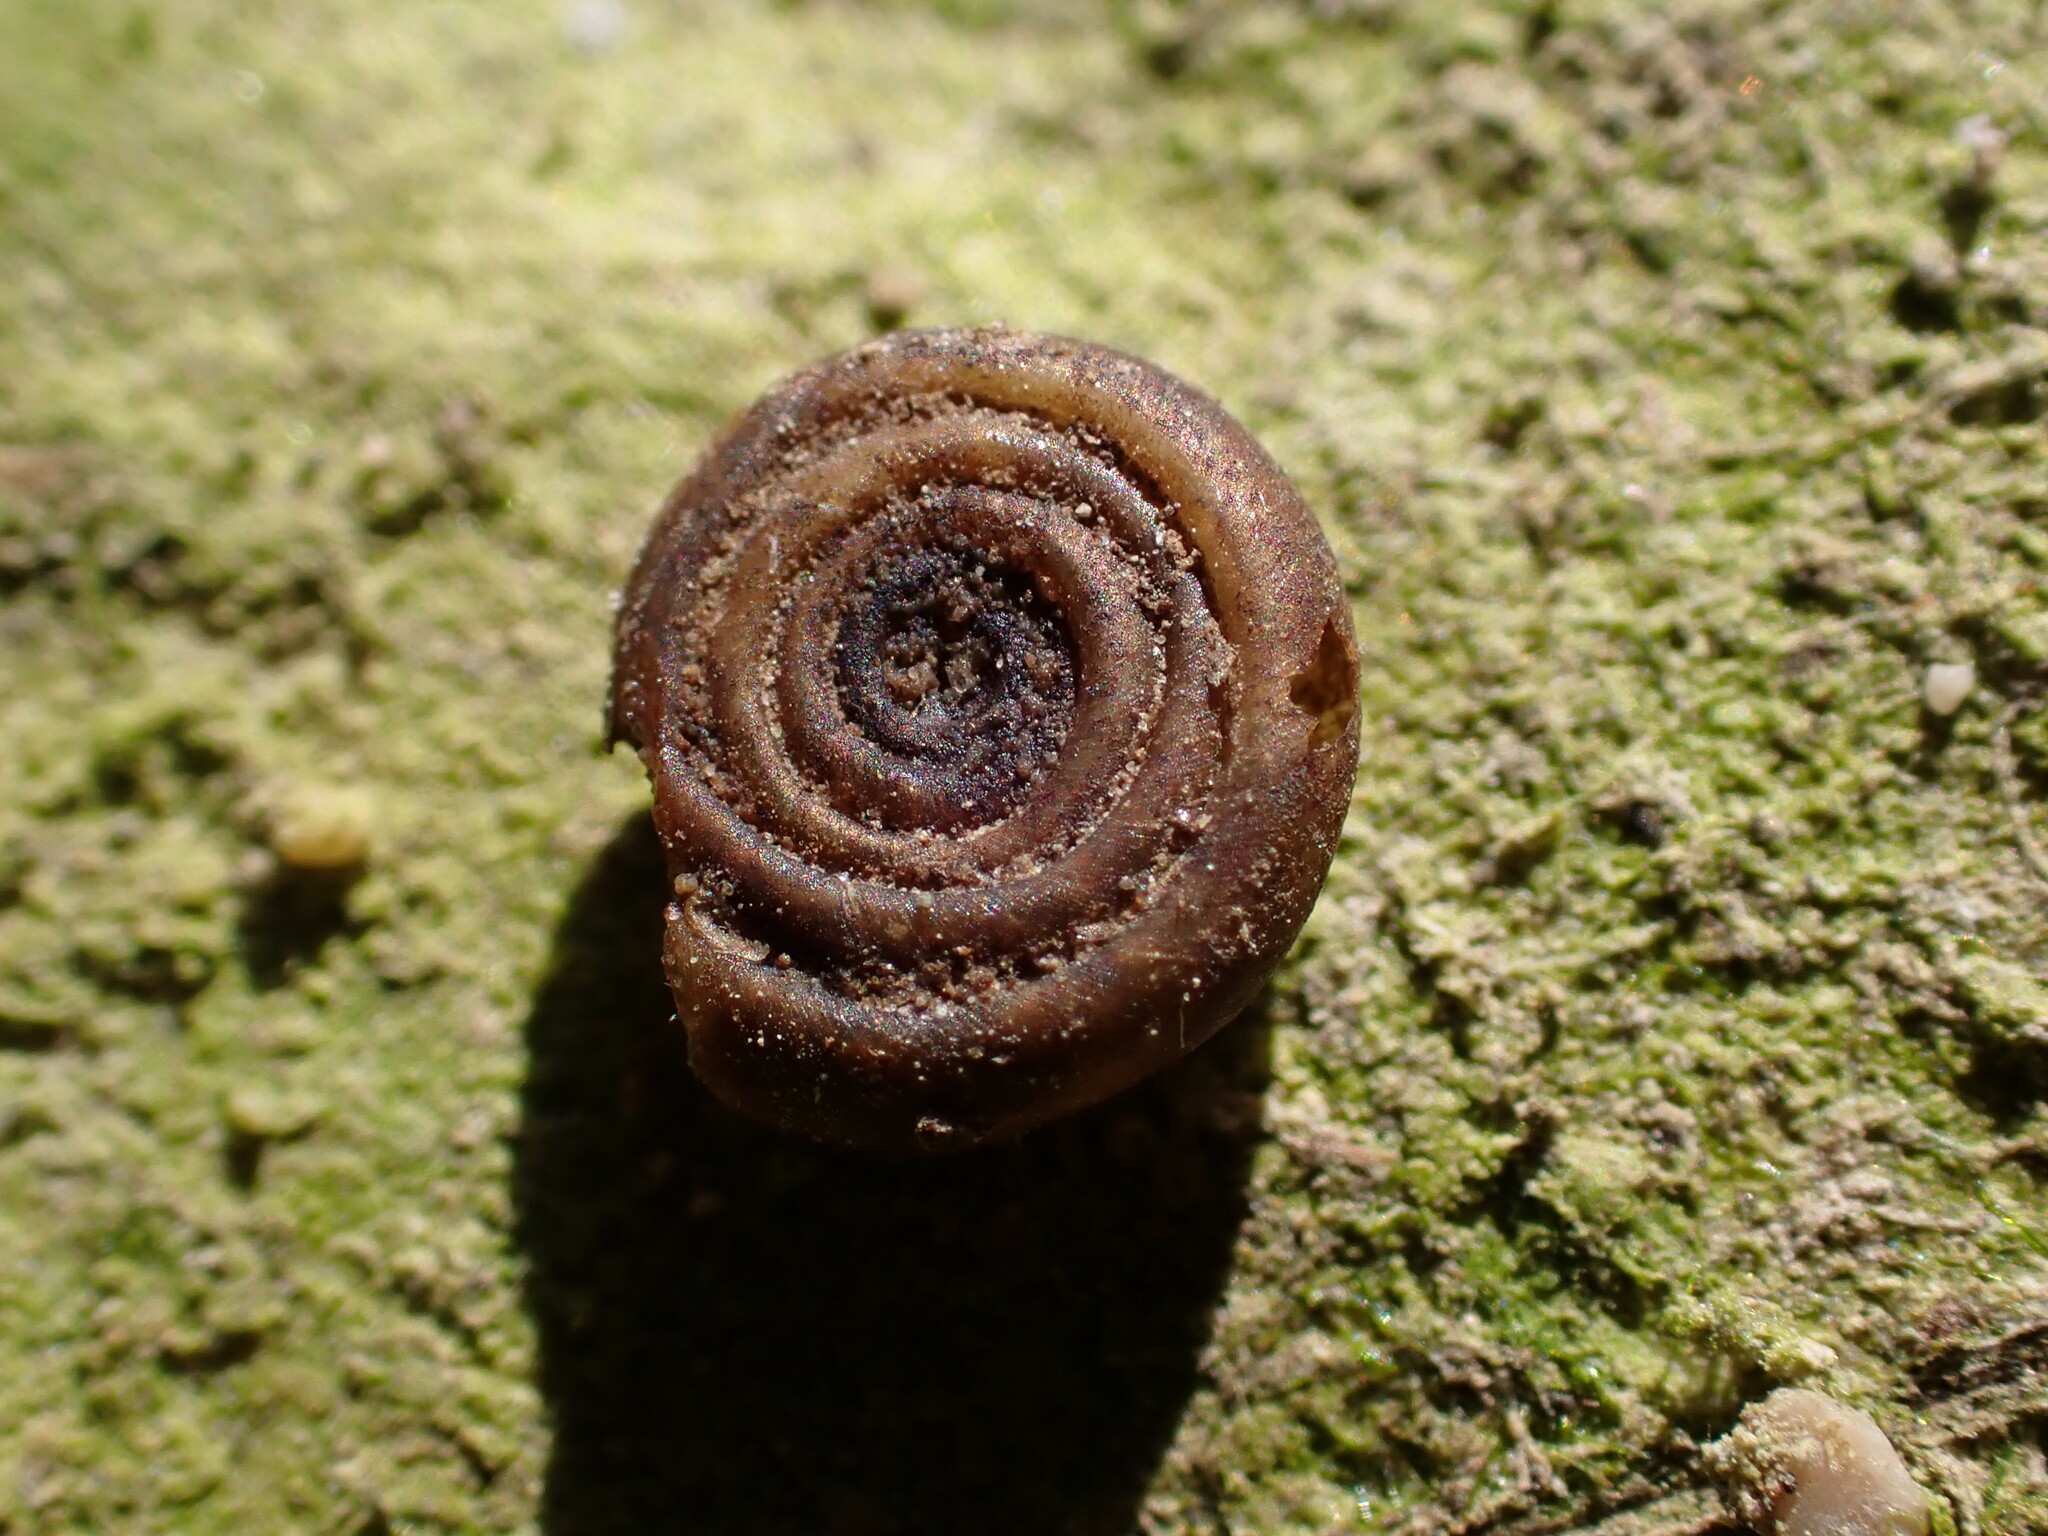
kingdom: Animalia
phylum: Mollusca
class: Gastropoda
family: Planorbidae
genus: Bathyomphalus
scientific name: Bathyomphalus contortus
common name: Twisted ramshorn
